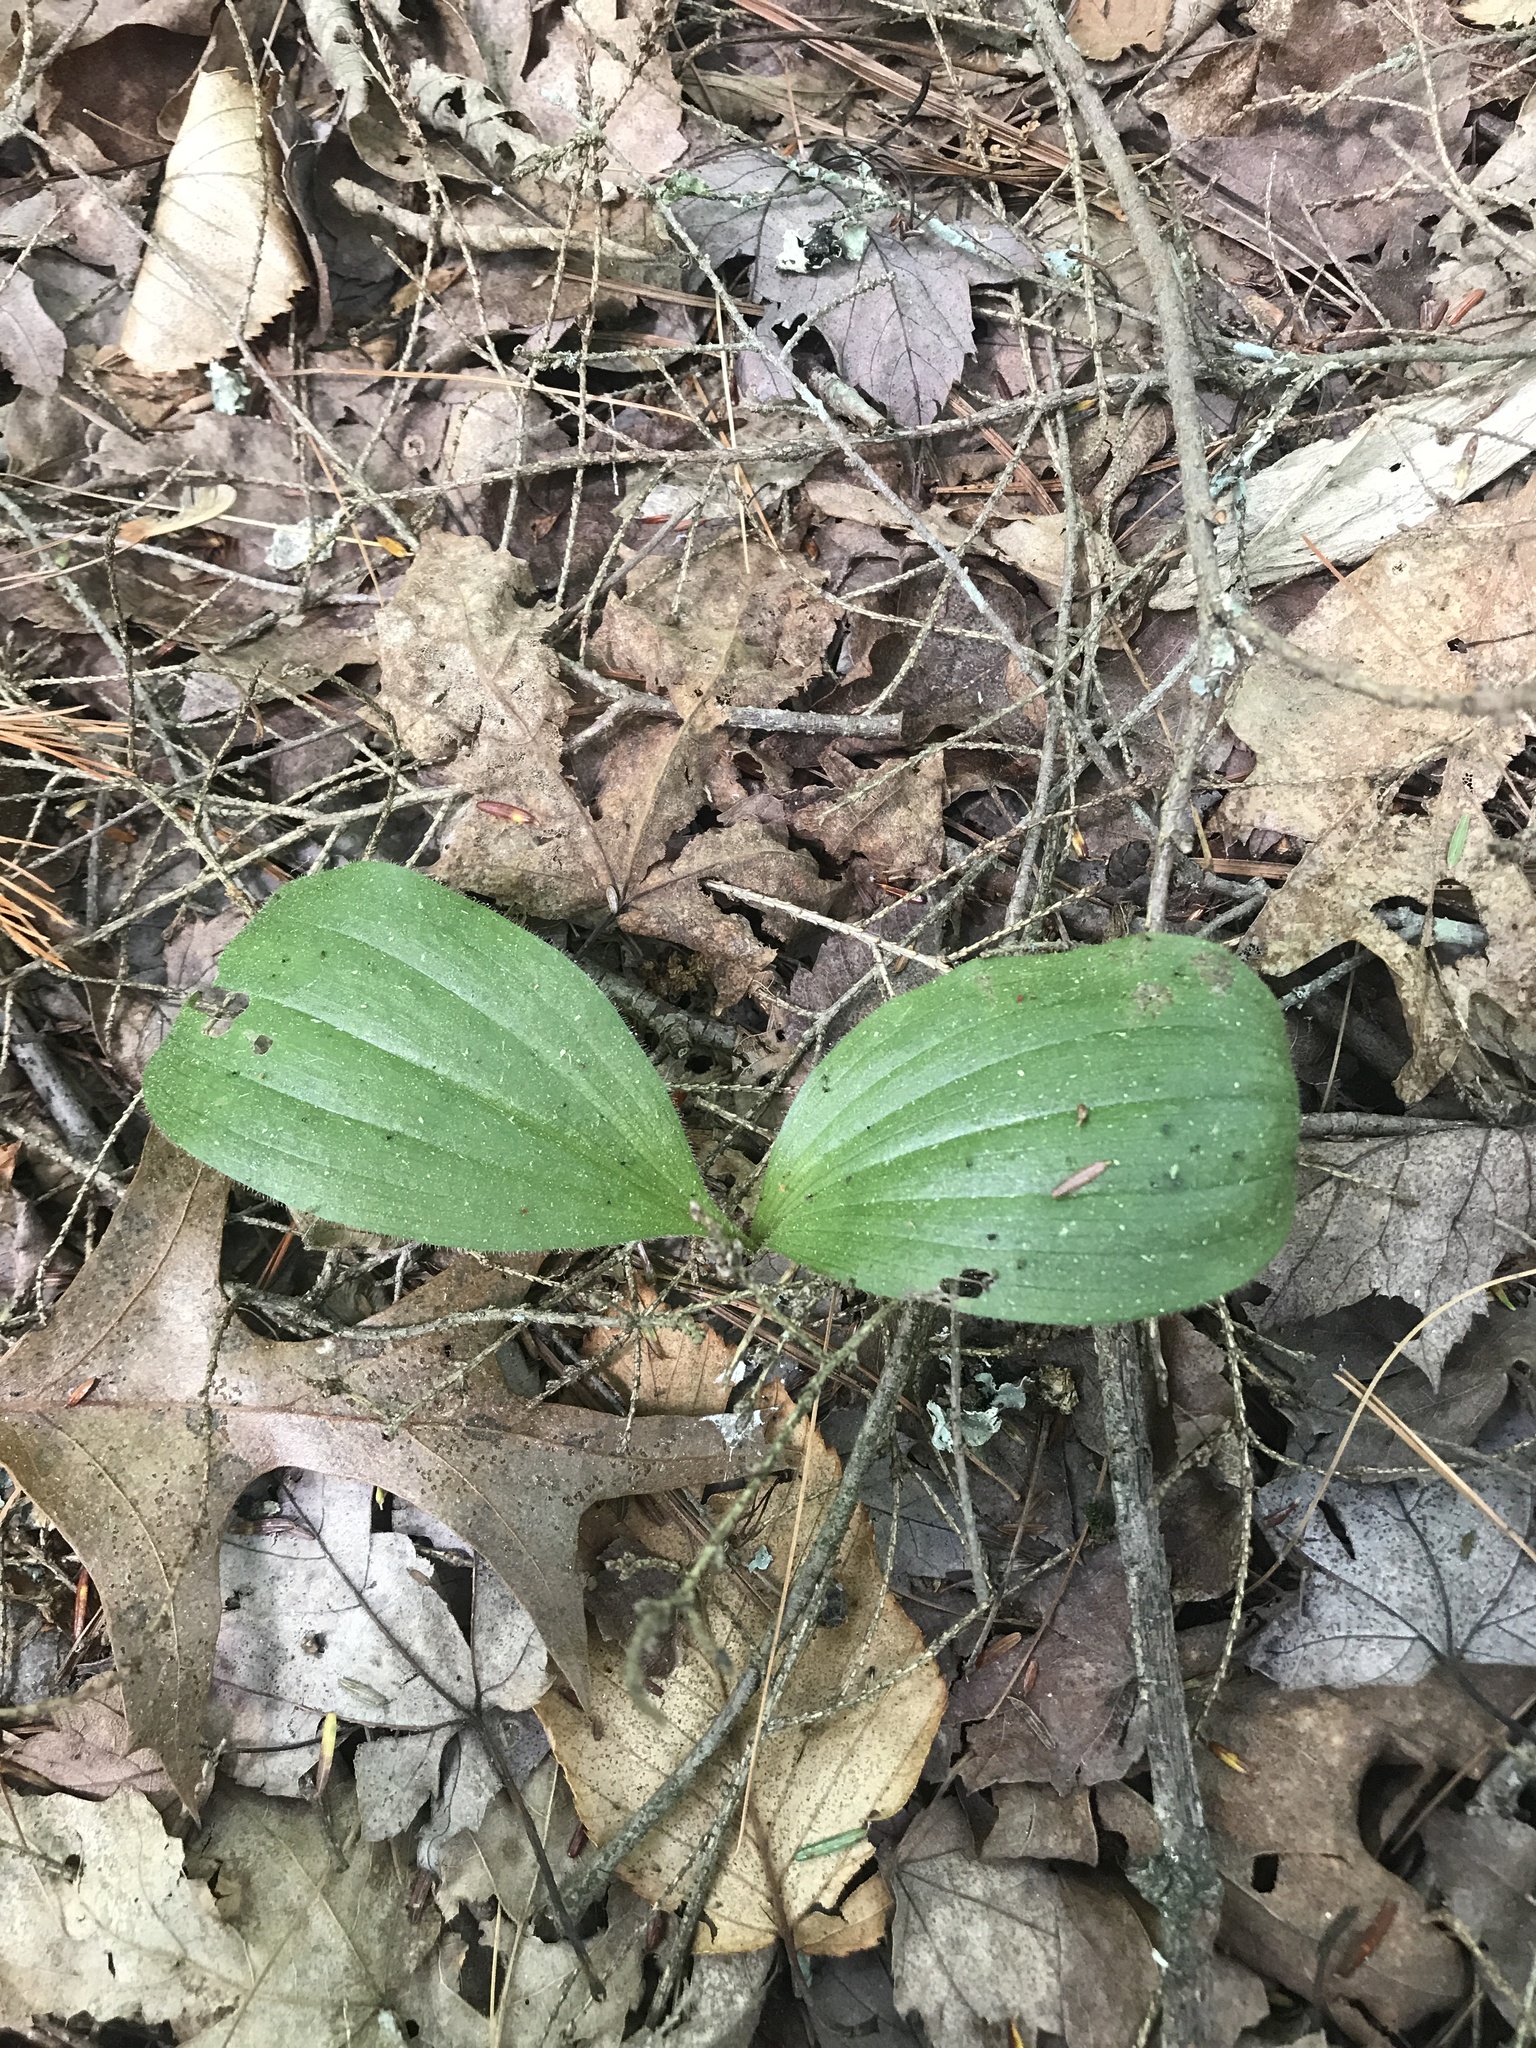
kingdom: Plantae
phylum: Tracheophyta
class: Liliopsida
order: Asparagales
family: Orchidaceae
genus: Cypripedium
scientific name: Cypripedium acaule
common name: Pink lady's-slipper
